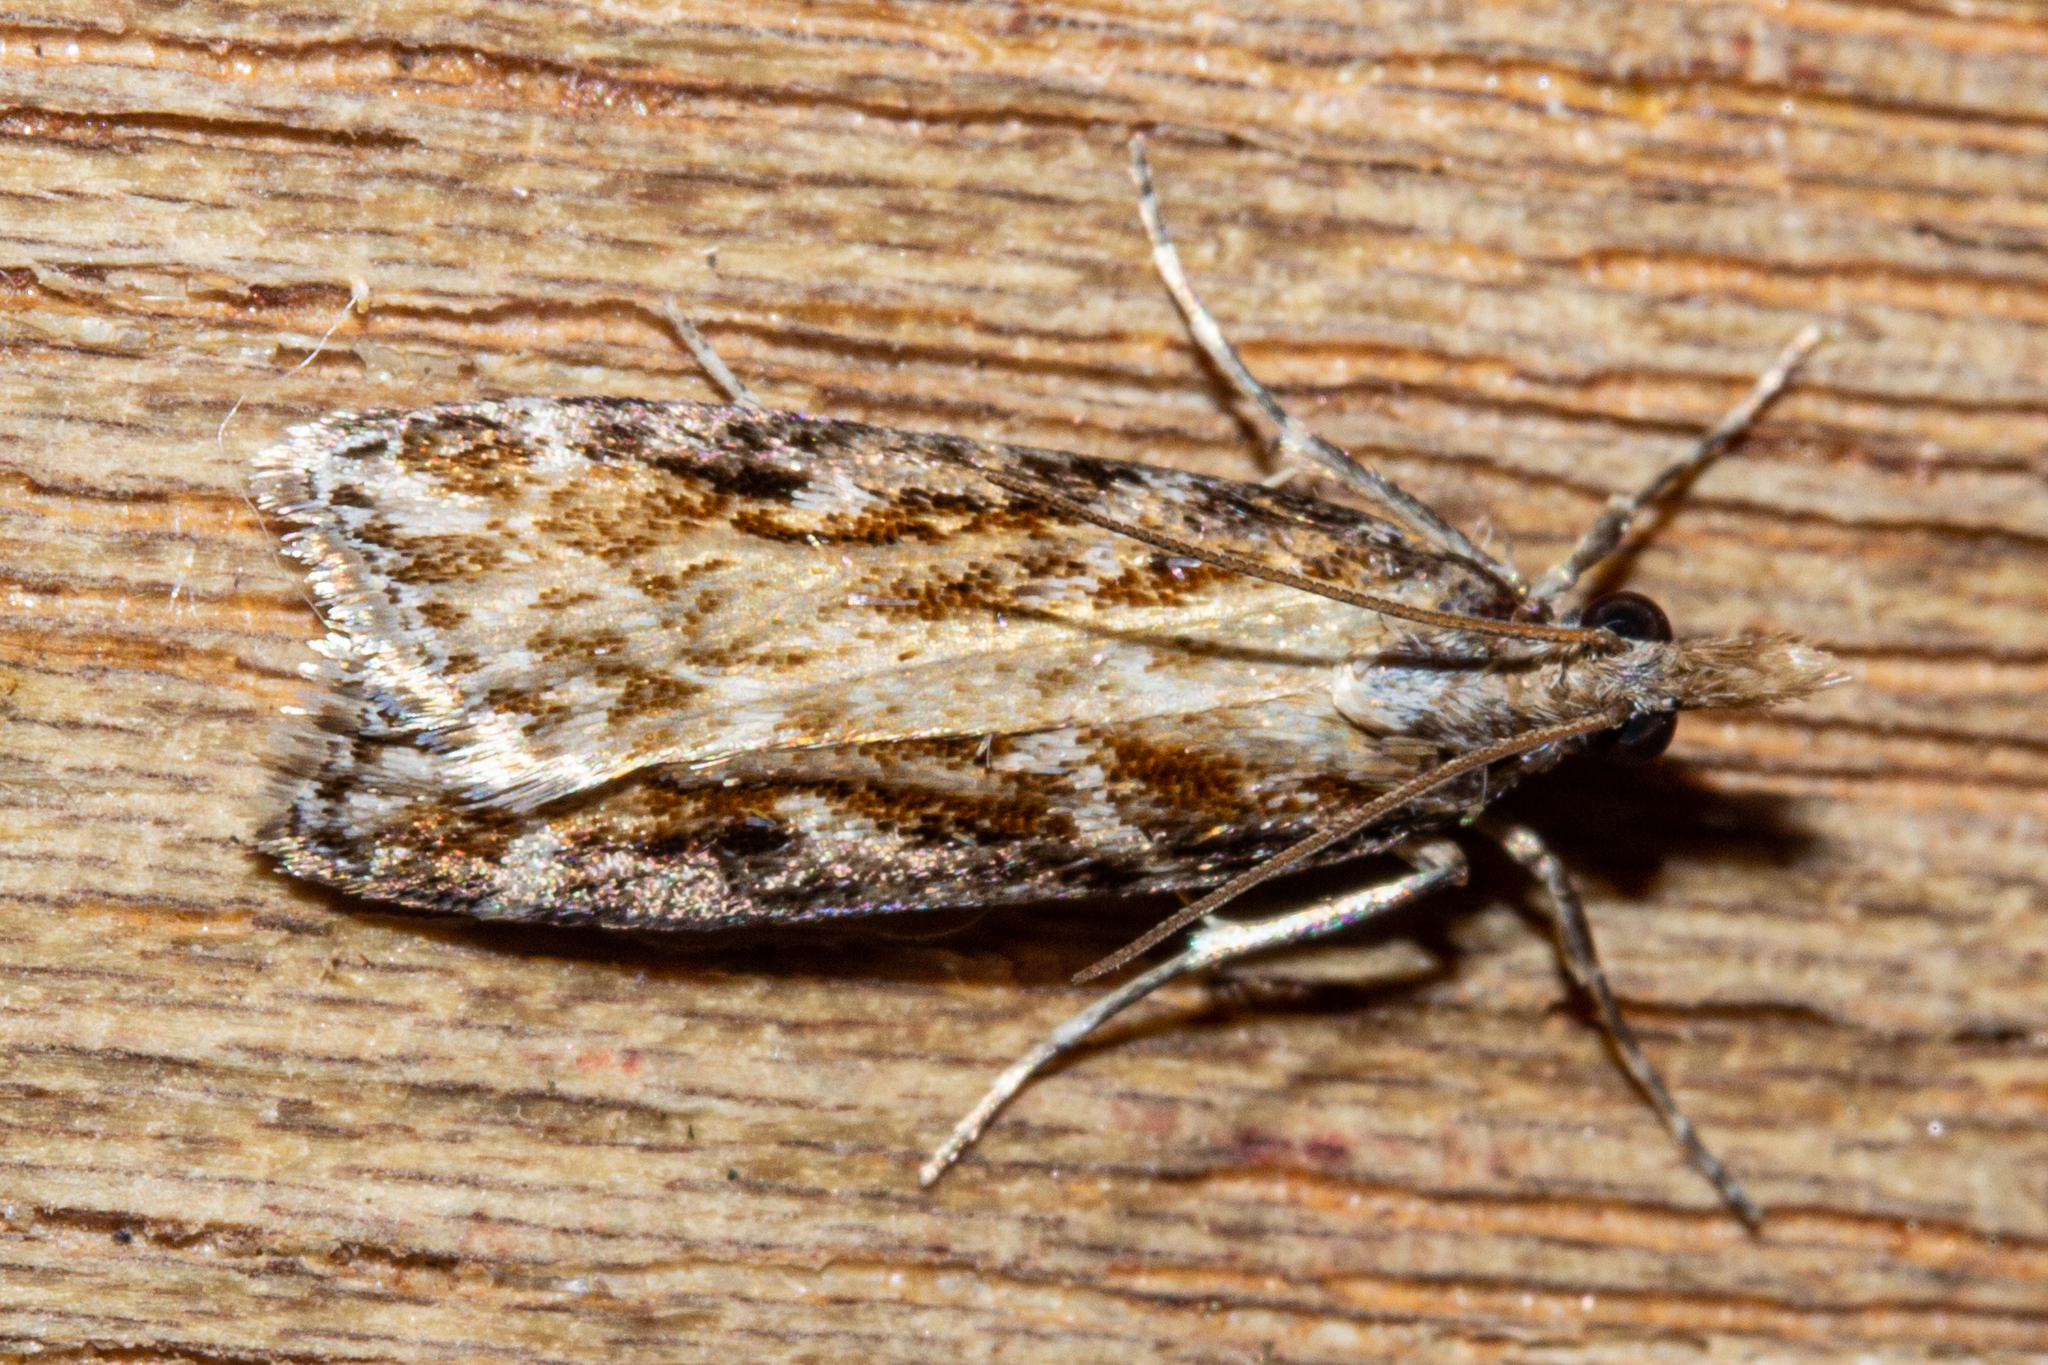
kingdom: Animalia
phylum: Arthropoda
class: Insecta
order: Lepidoptera
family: Crambidae
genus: Scoparia
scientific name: Scoparia molifera
